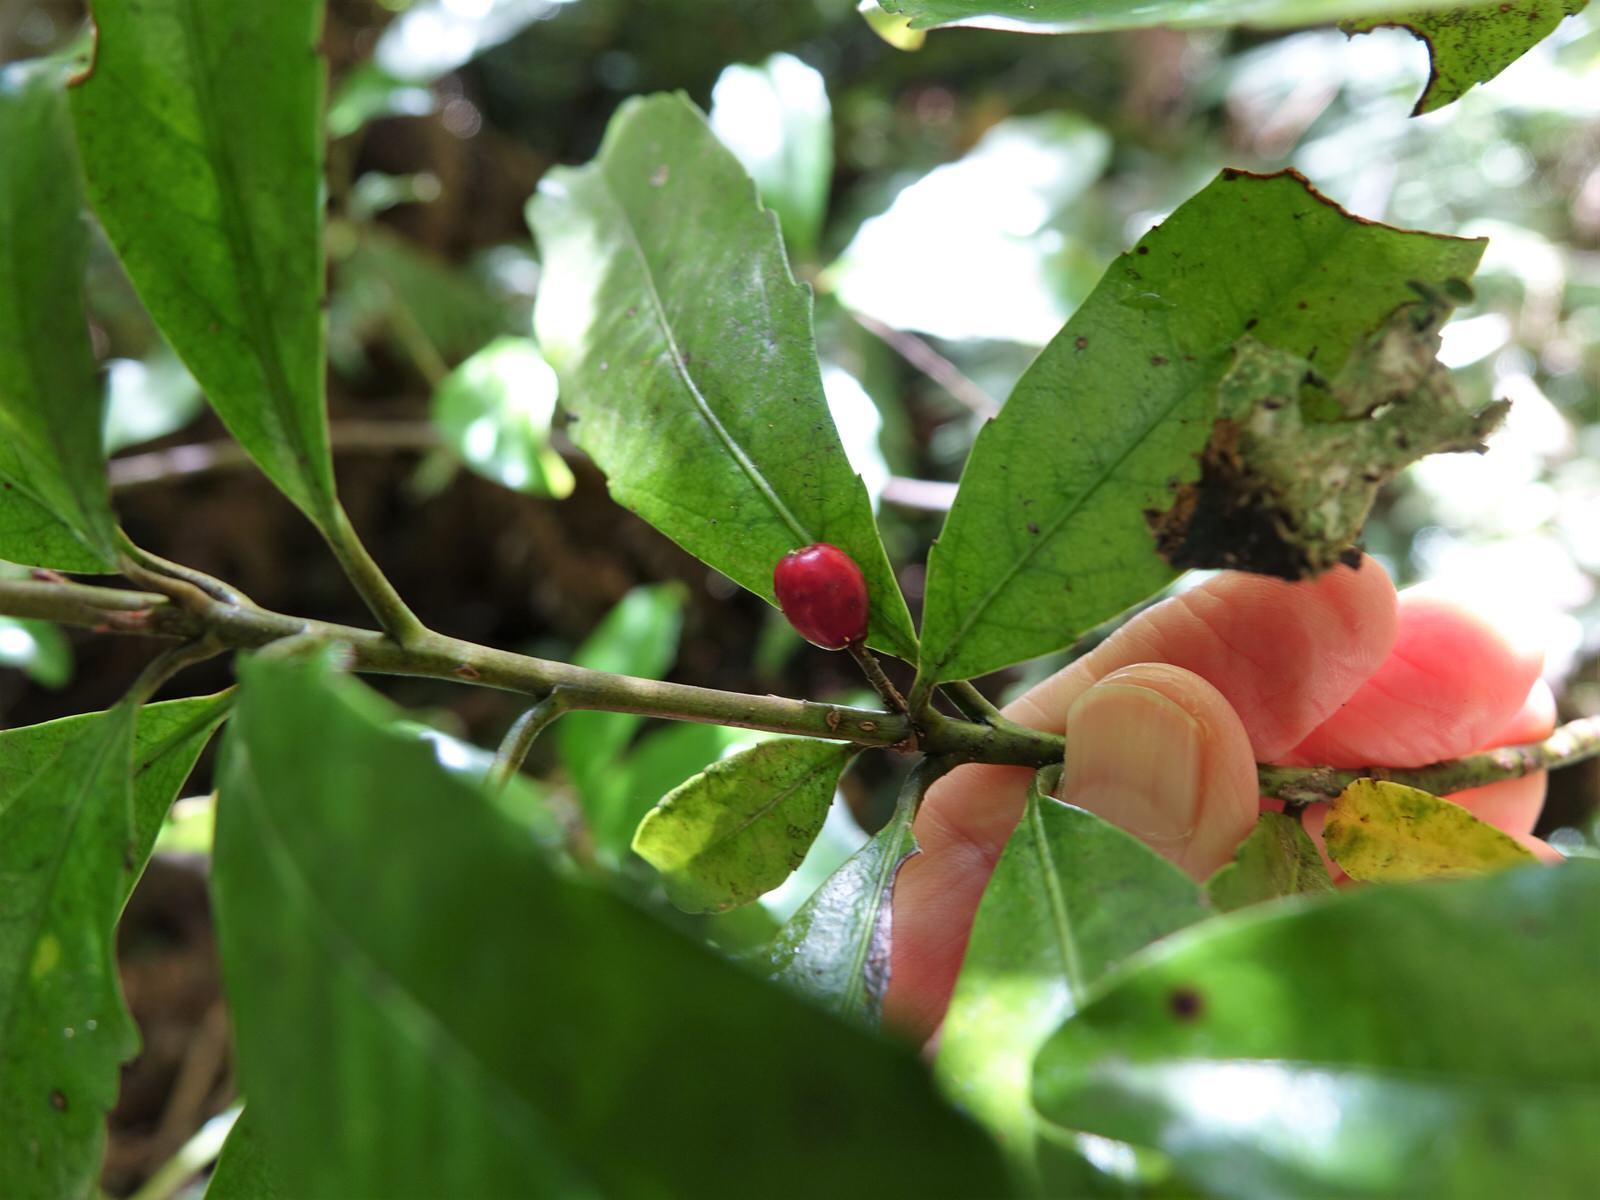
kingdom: Plantae
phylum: Tracheophyta
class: Magnoliopsida
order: Asterales
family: Alseuosmiaceae
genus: Alseuosmia
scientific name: Alseuosmia macrophylla
